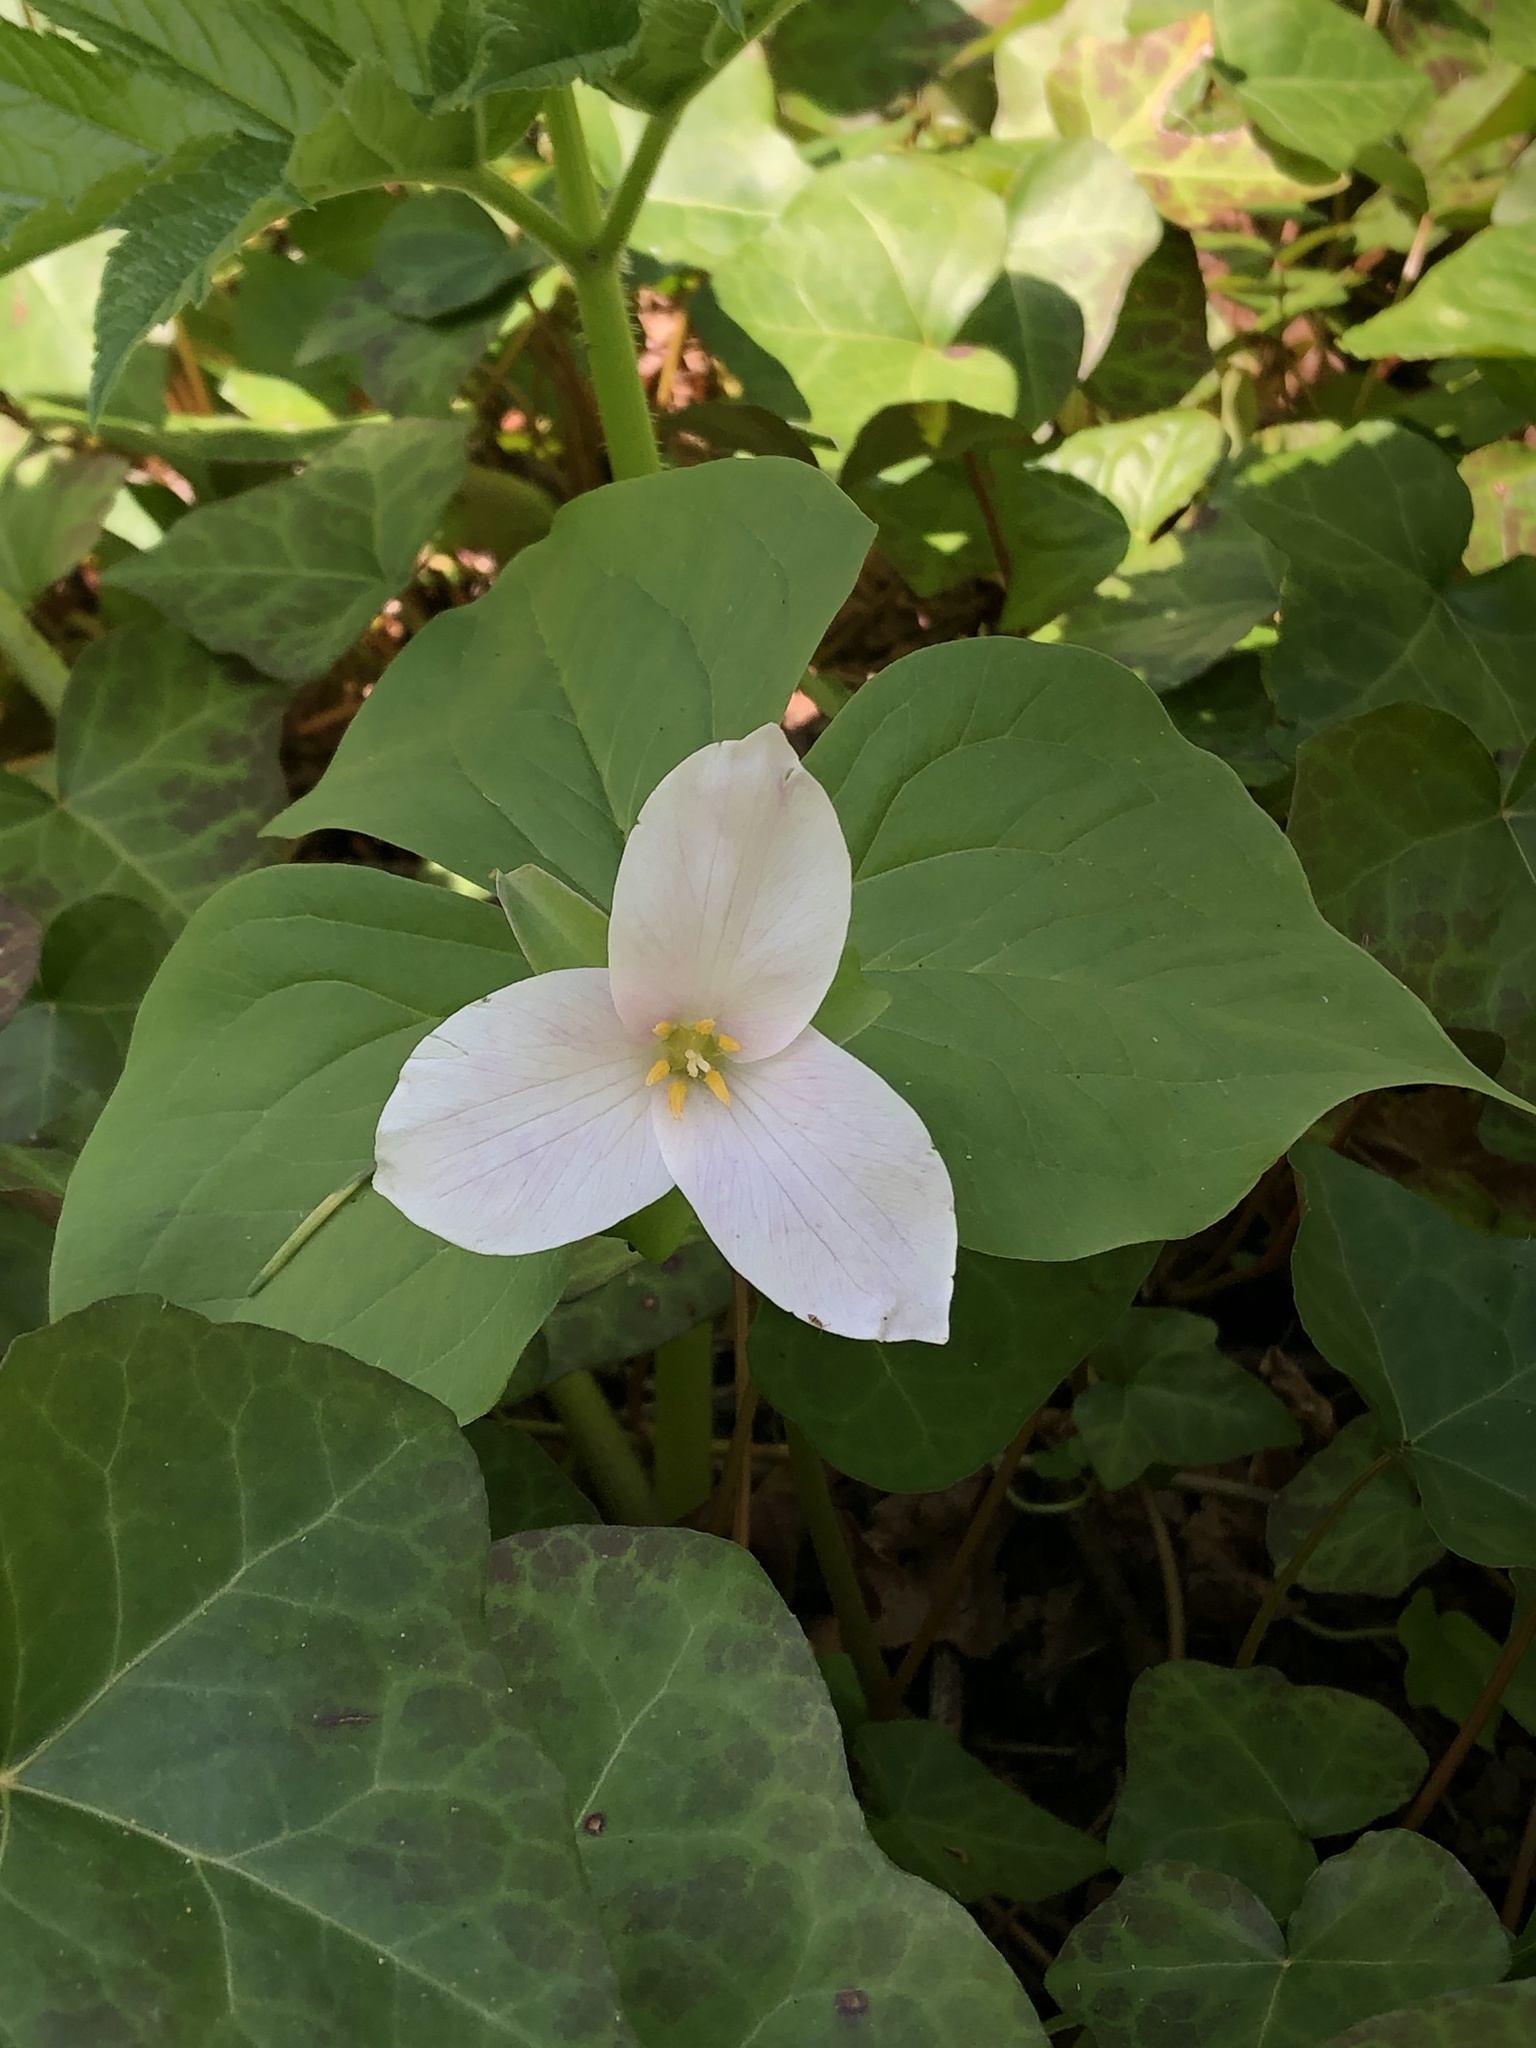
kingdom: Plantae
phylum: Tracheophyta
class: Liliopsida
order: Liliales
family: Melanthiaceae
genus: Trillium
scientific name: Trillium ovatum
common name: Pacific trillium
